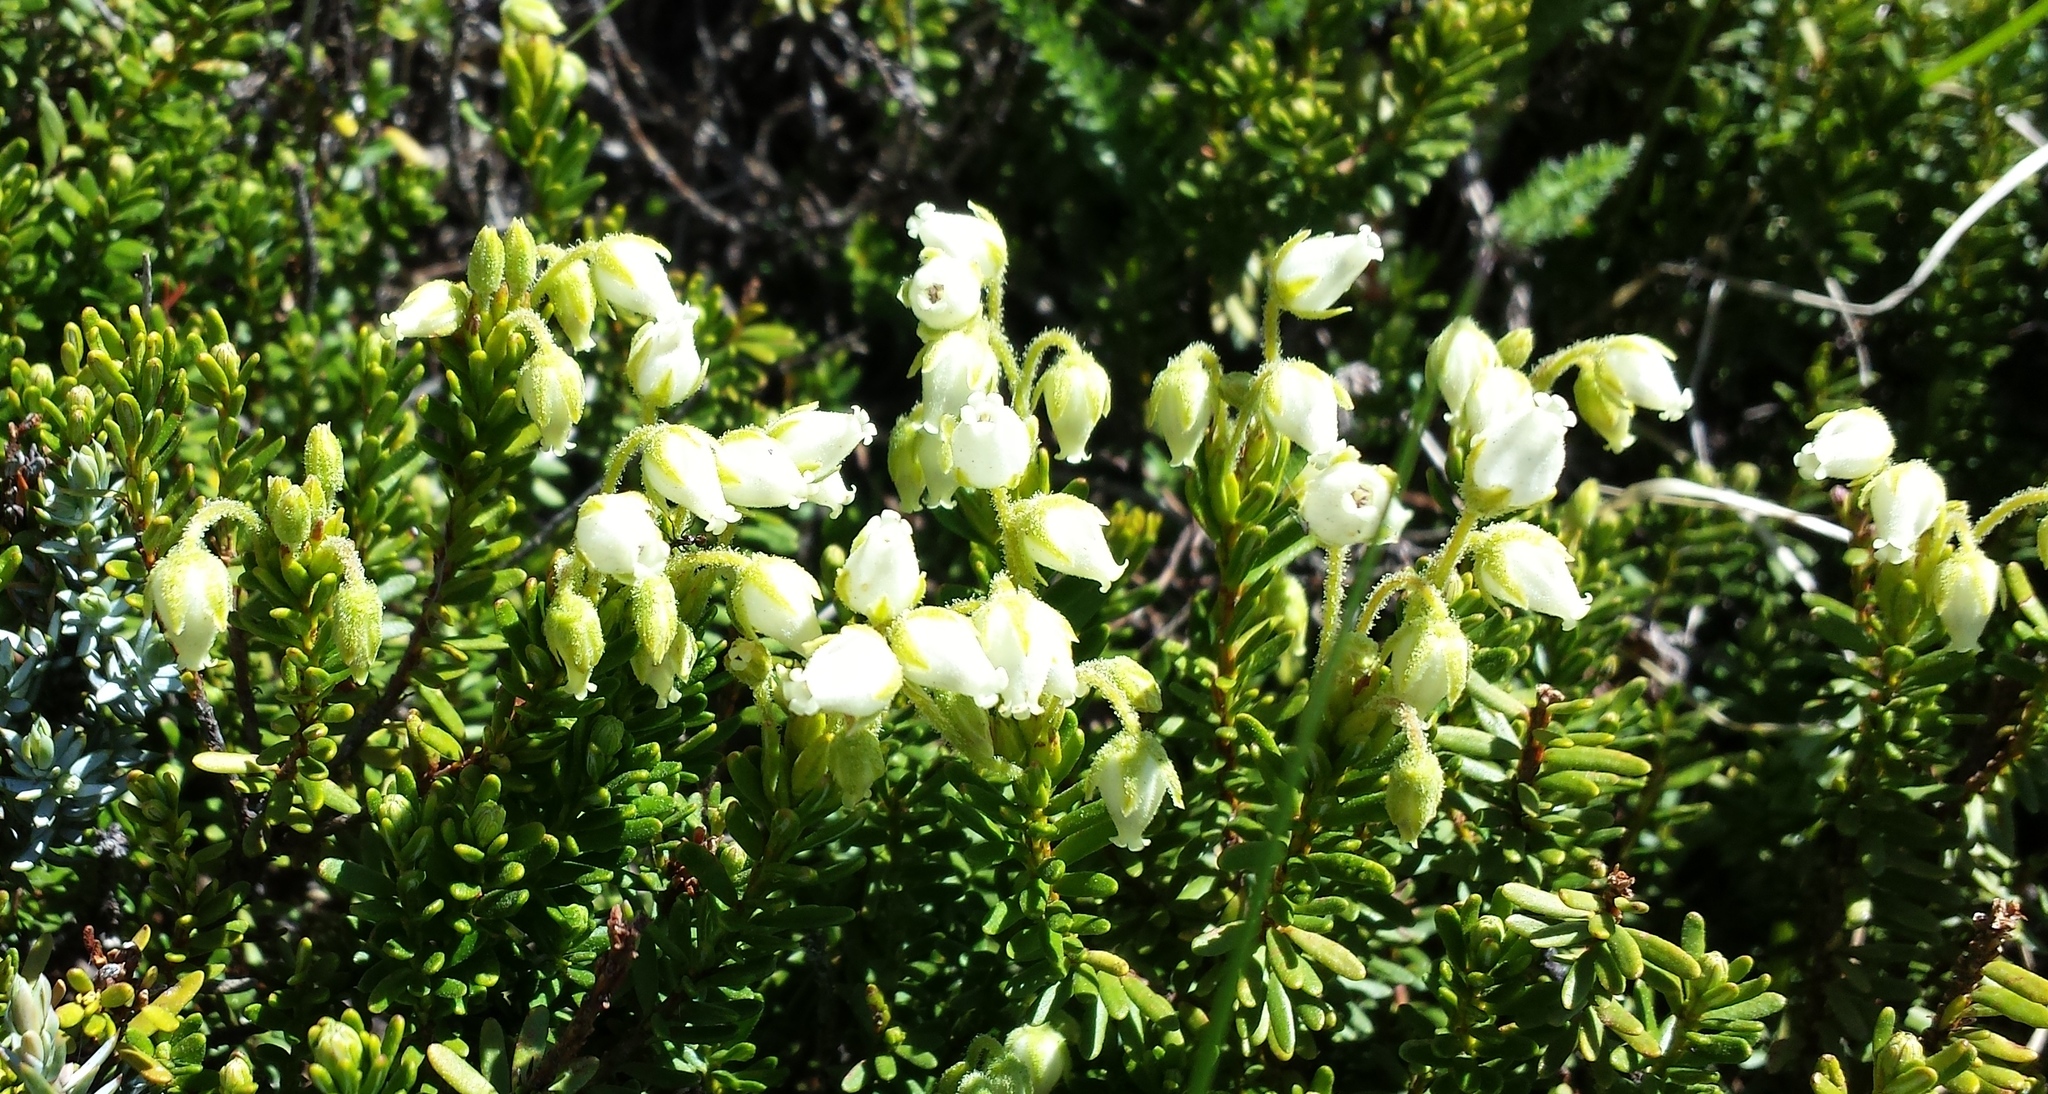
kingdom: Plantae
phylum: Tracheophyta
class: Magnoliopsida
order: Ericales
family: Ericaceae
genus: Phyllodoce
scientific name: Phyllodoce glanduliflora
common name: Cream mountain heather
